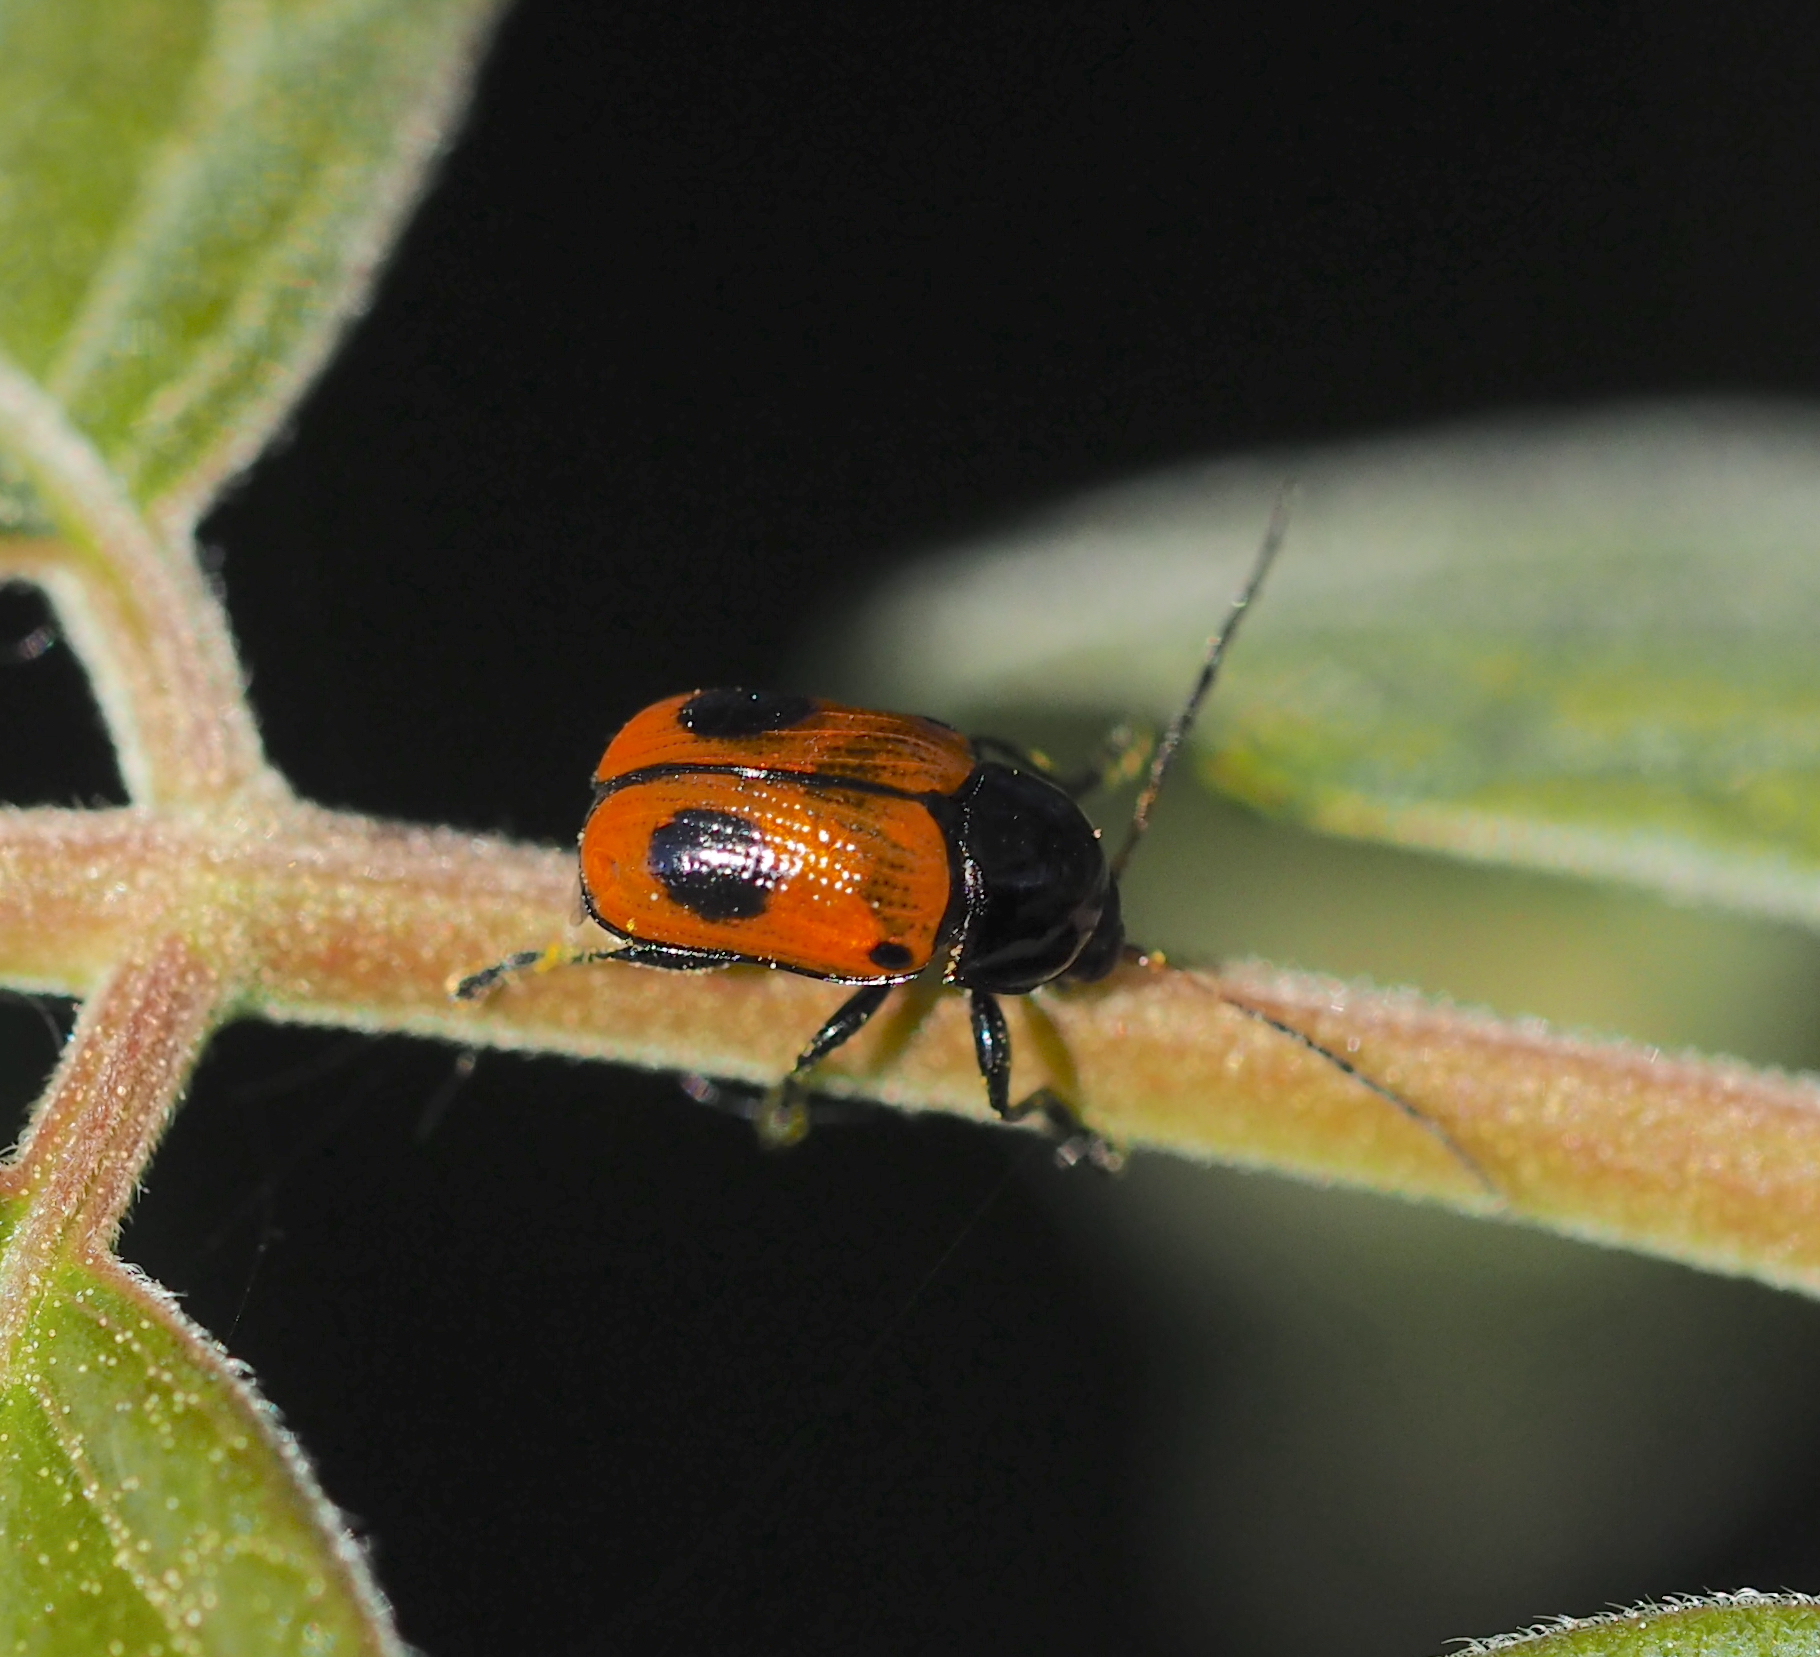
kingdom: Animalia
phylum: Arthropoda
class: Insecta
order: Coleoptera
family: Chrysomelidae
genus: Chiridopsis
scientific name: Chiridopsis bipunctata
